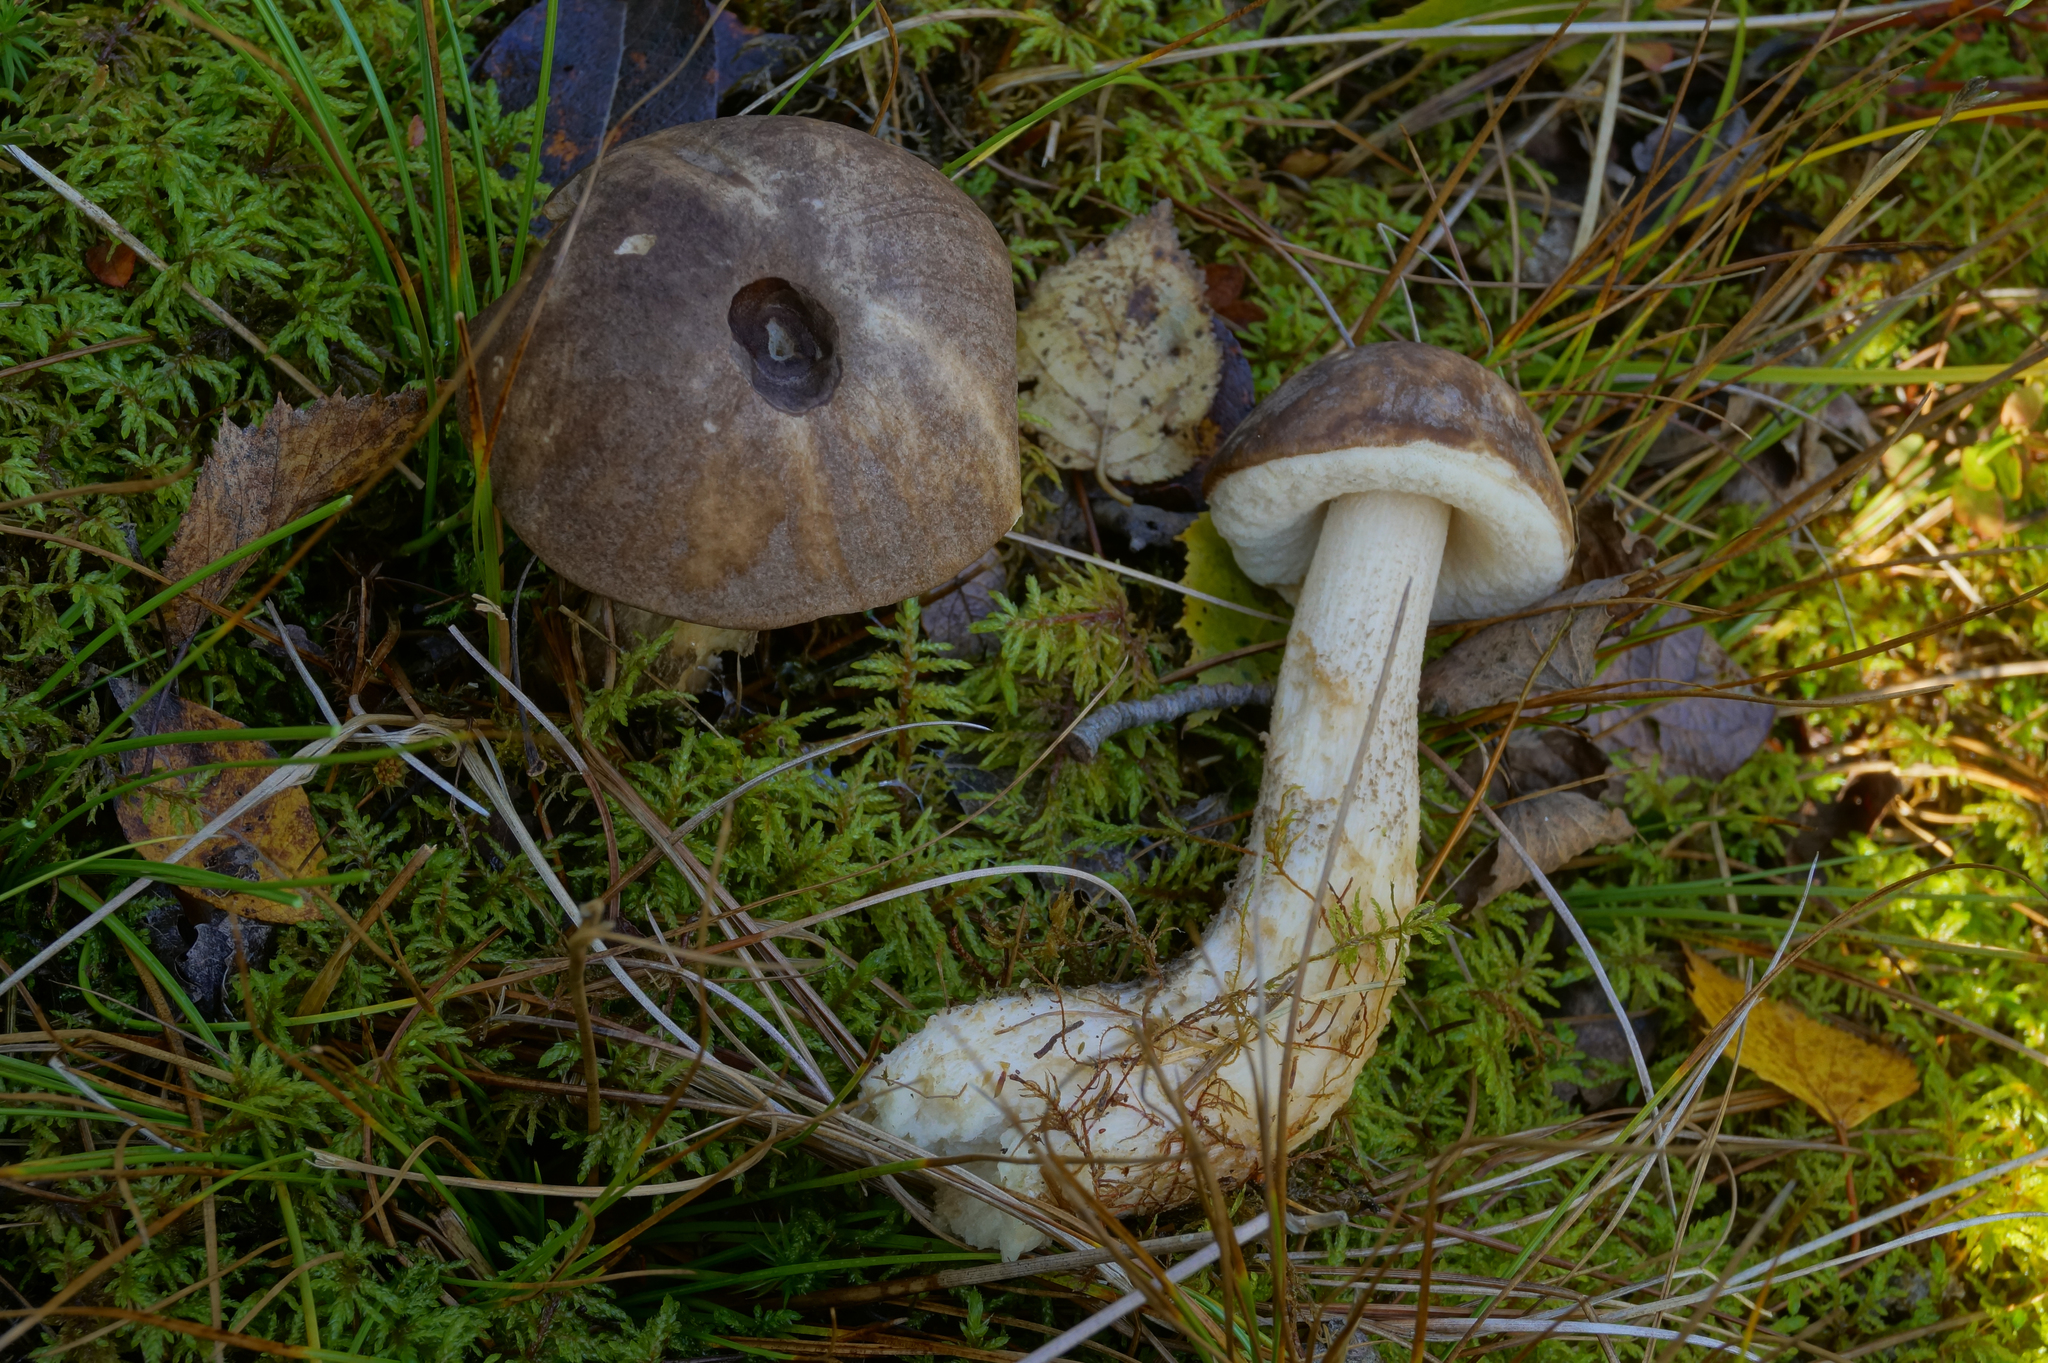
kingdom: Fungi
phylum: Basidiomycota
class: Agaricomycetes
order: Boletales
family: Boletaceae
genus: Leccinum
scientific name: Leccinum variicolor
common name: Mottled bolete
